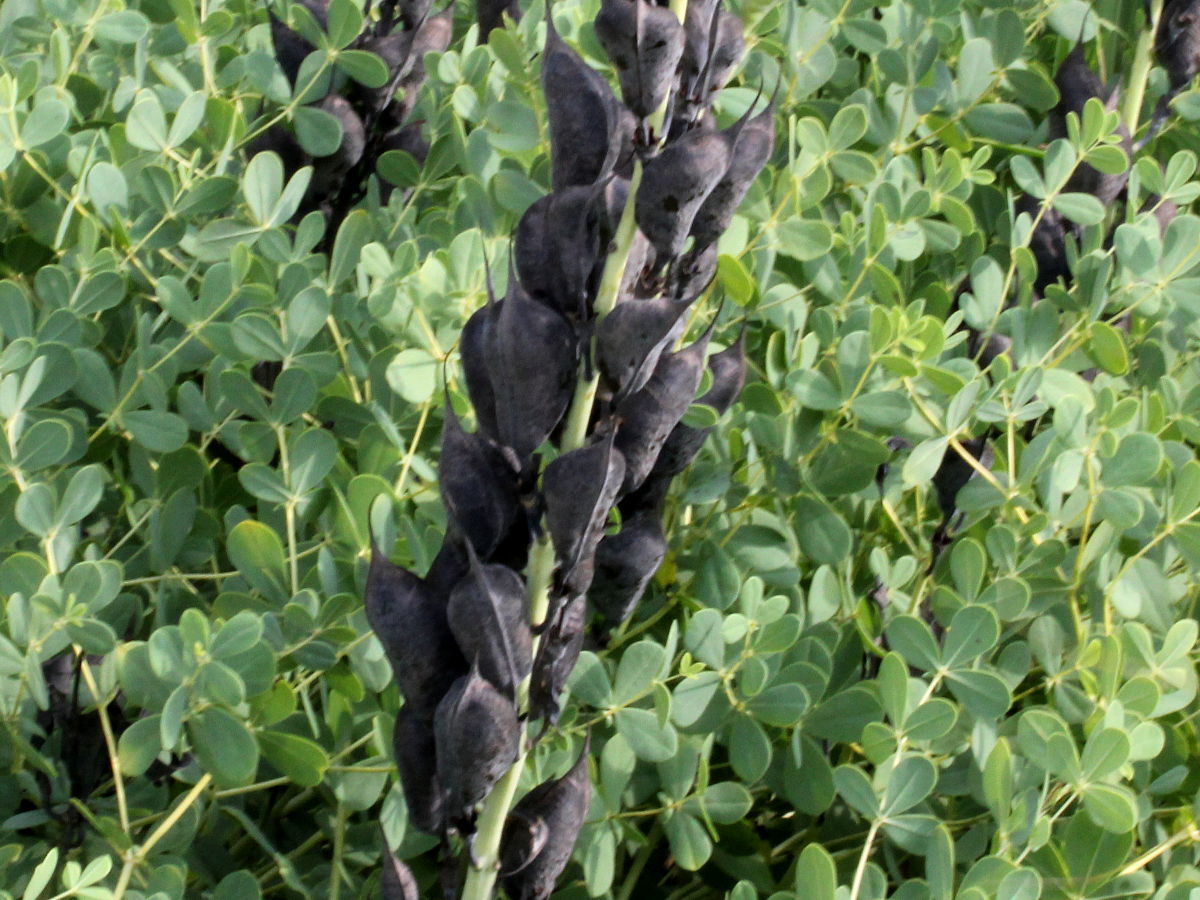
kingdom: Plantae
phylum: Tracheophyta
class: Magnoliopsida
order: Fabales
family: Fabaceae
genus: Baptisia
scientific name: Baptisia australis
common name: Blue false indigo
